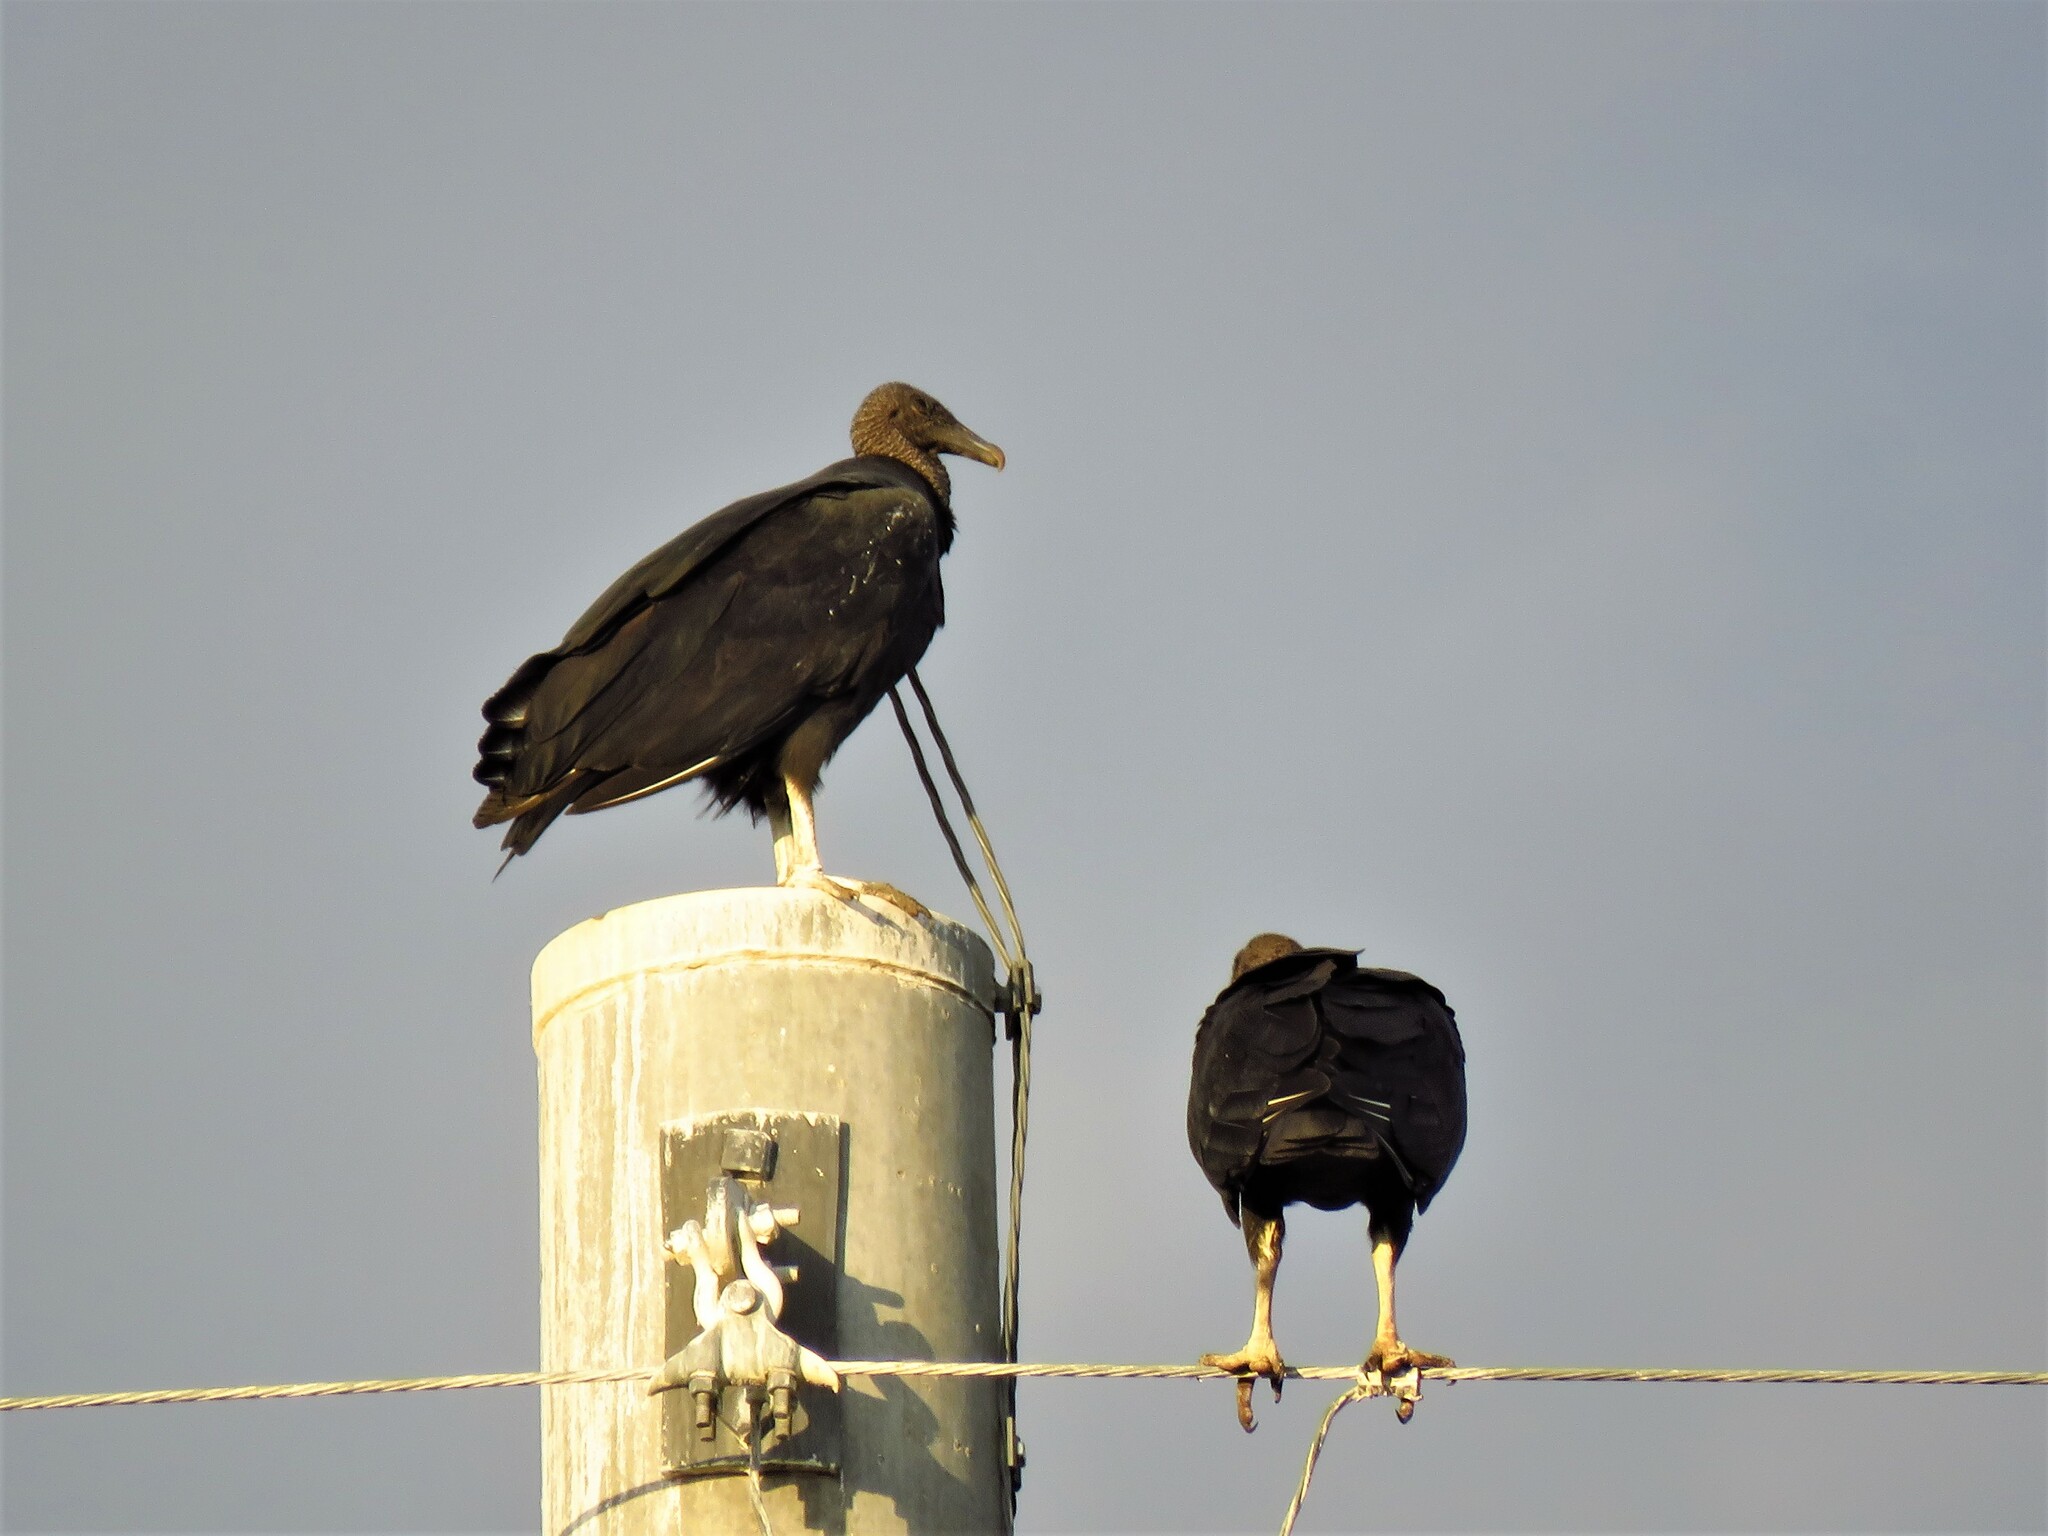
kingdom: Animalia
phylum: Chordata
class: Aves
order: Accipitriformes
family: Cathartidae
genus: Coragyps
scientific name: Coragyps atratus
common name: Black vulture
